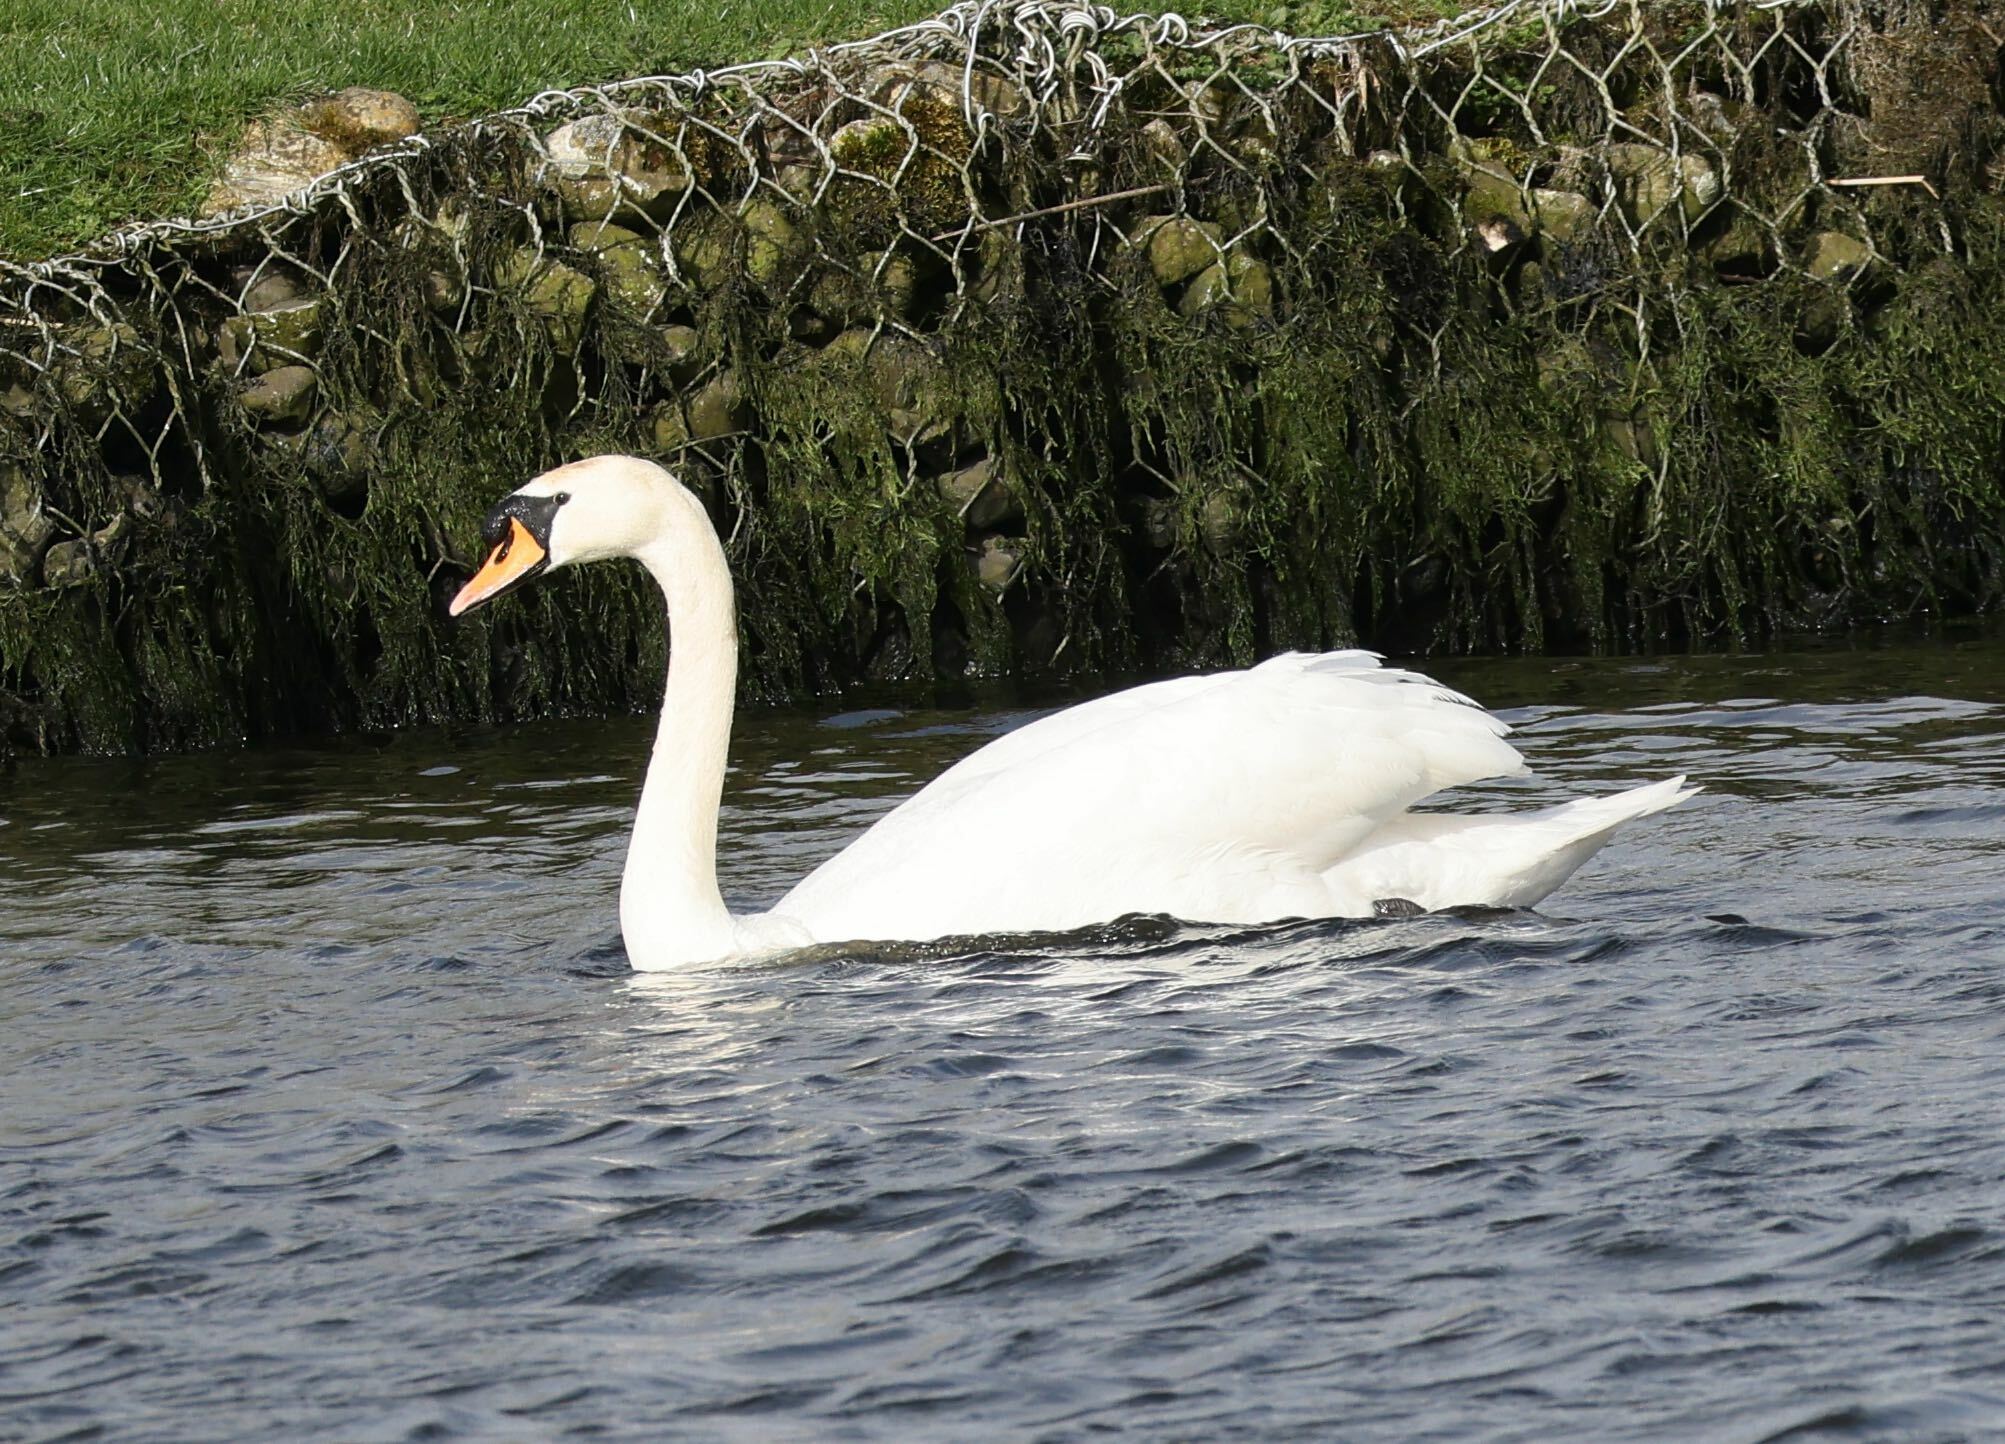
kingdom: Animalia
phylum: Chordata
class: Aves
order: Anseriformes
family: Anatidae
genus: Cygnus
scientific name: Cygnus olor
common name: Mute swan
